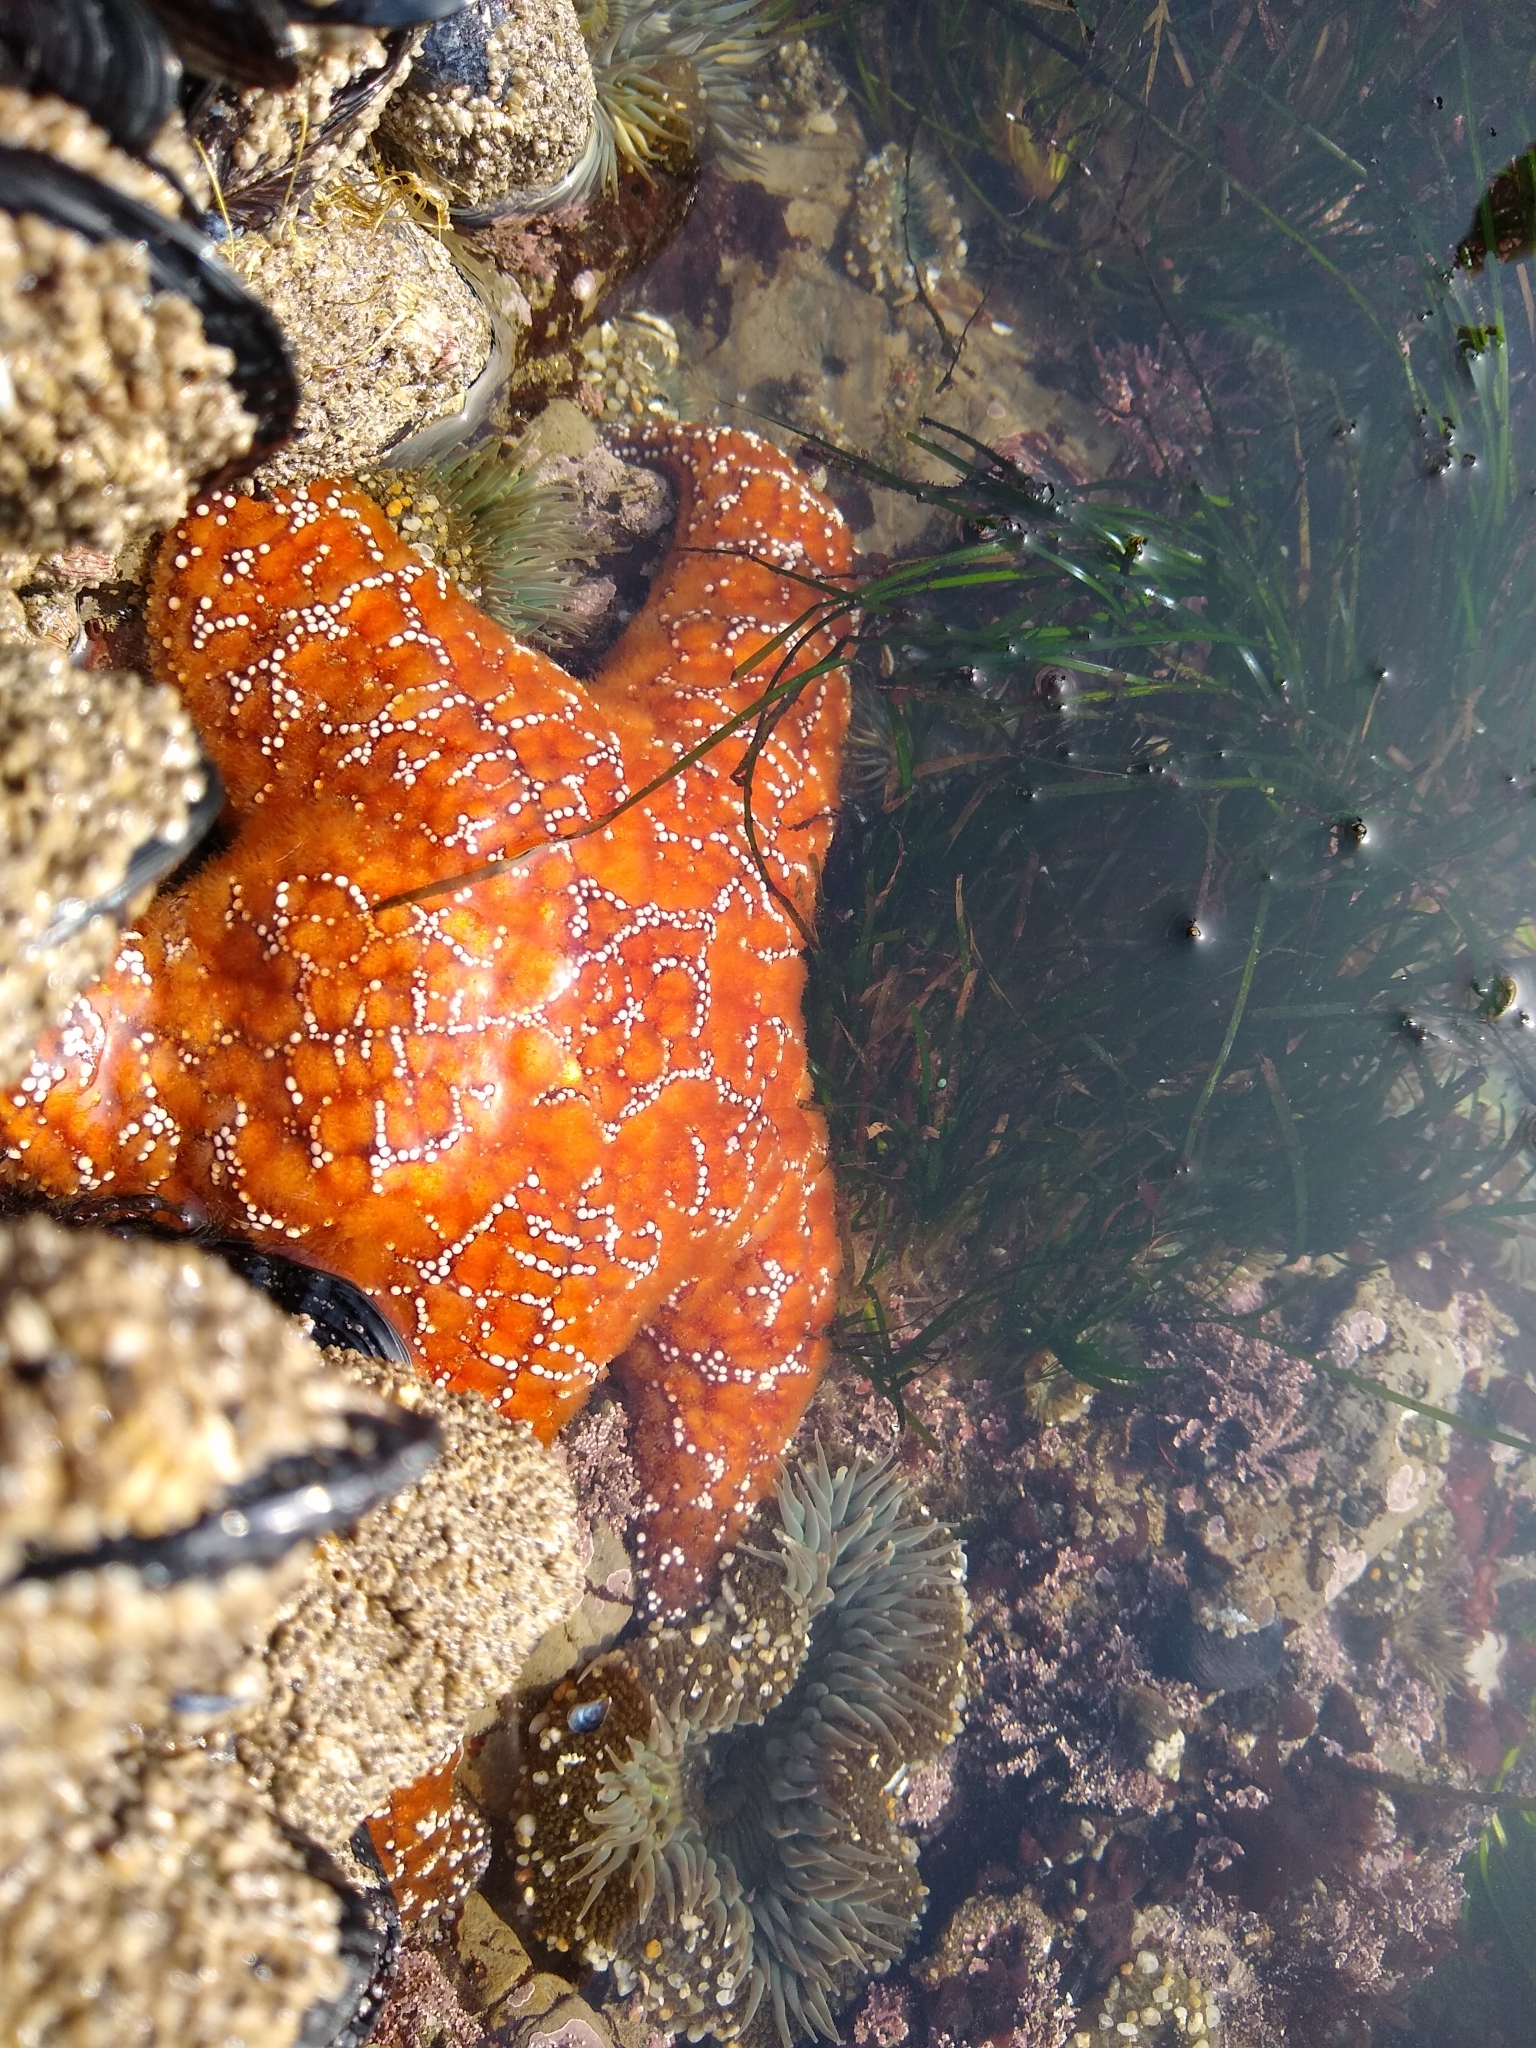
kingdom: Animalia
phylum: Echinodermata
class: Asteroidea
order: Forcipulatida
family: Asteriidae
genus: Pisaster
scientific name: Pisaster ochraceus
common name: Ochre stars
